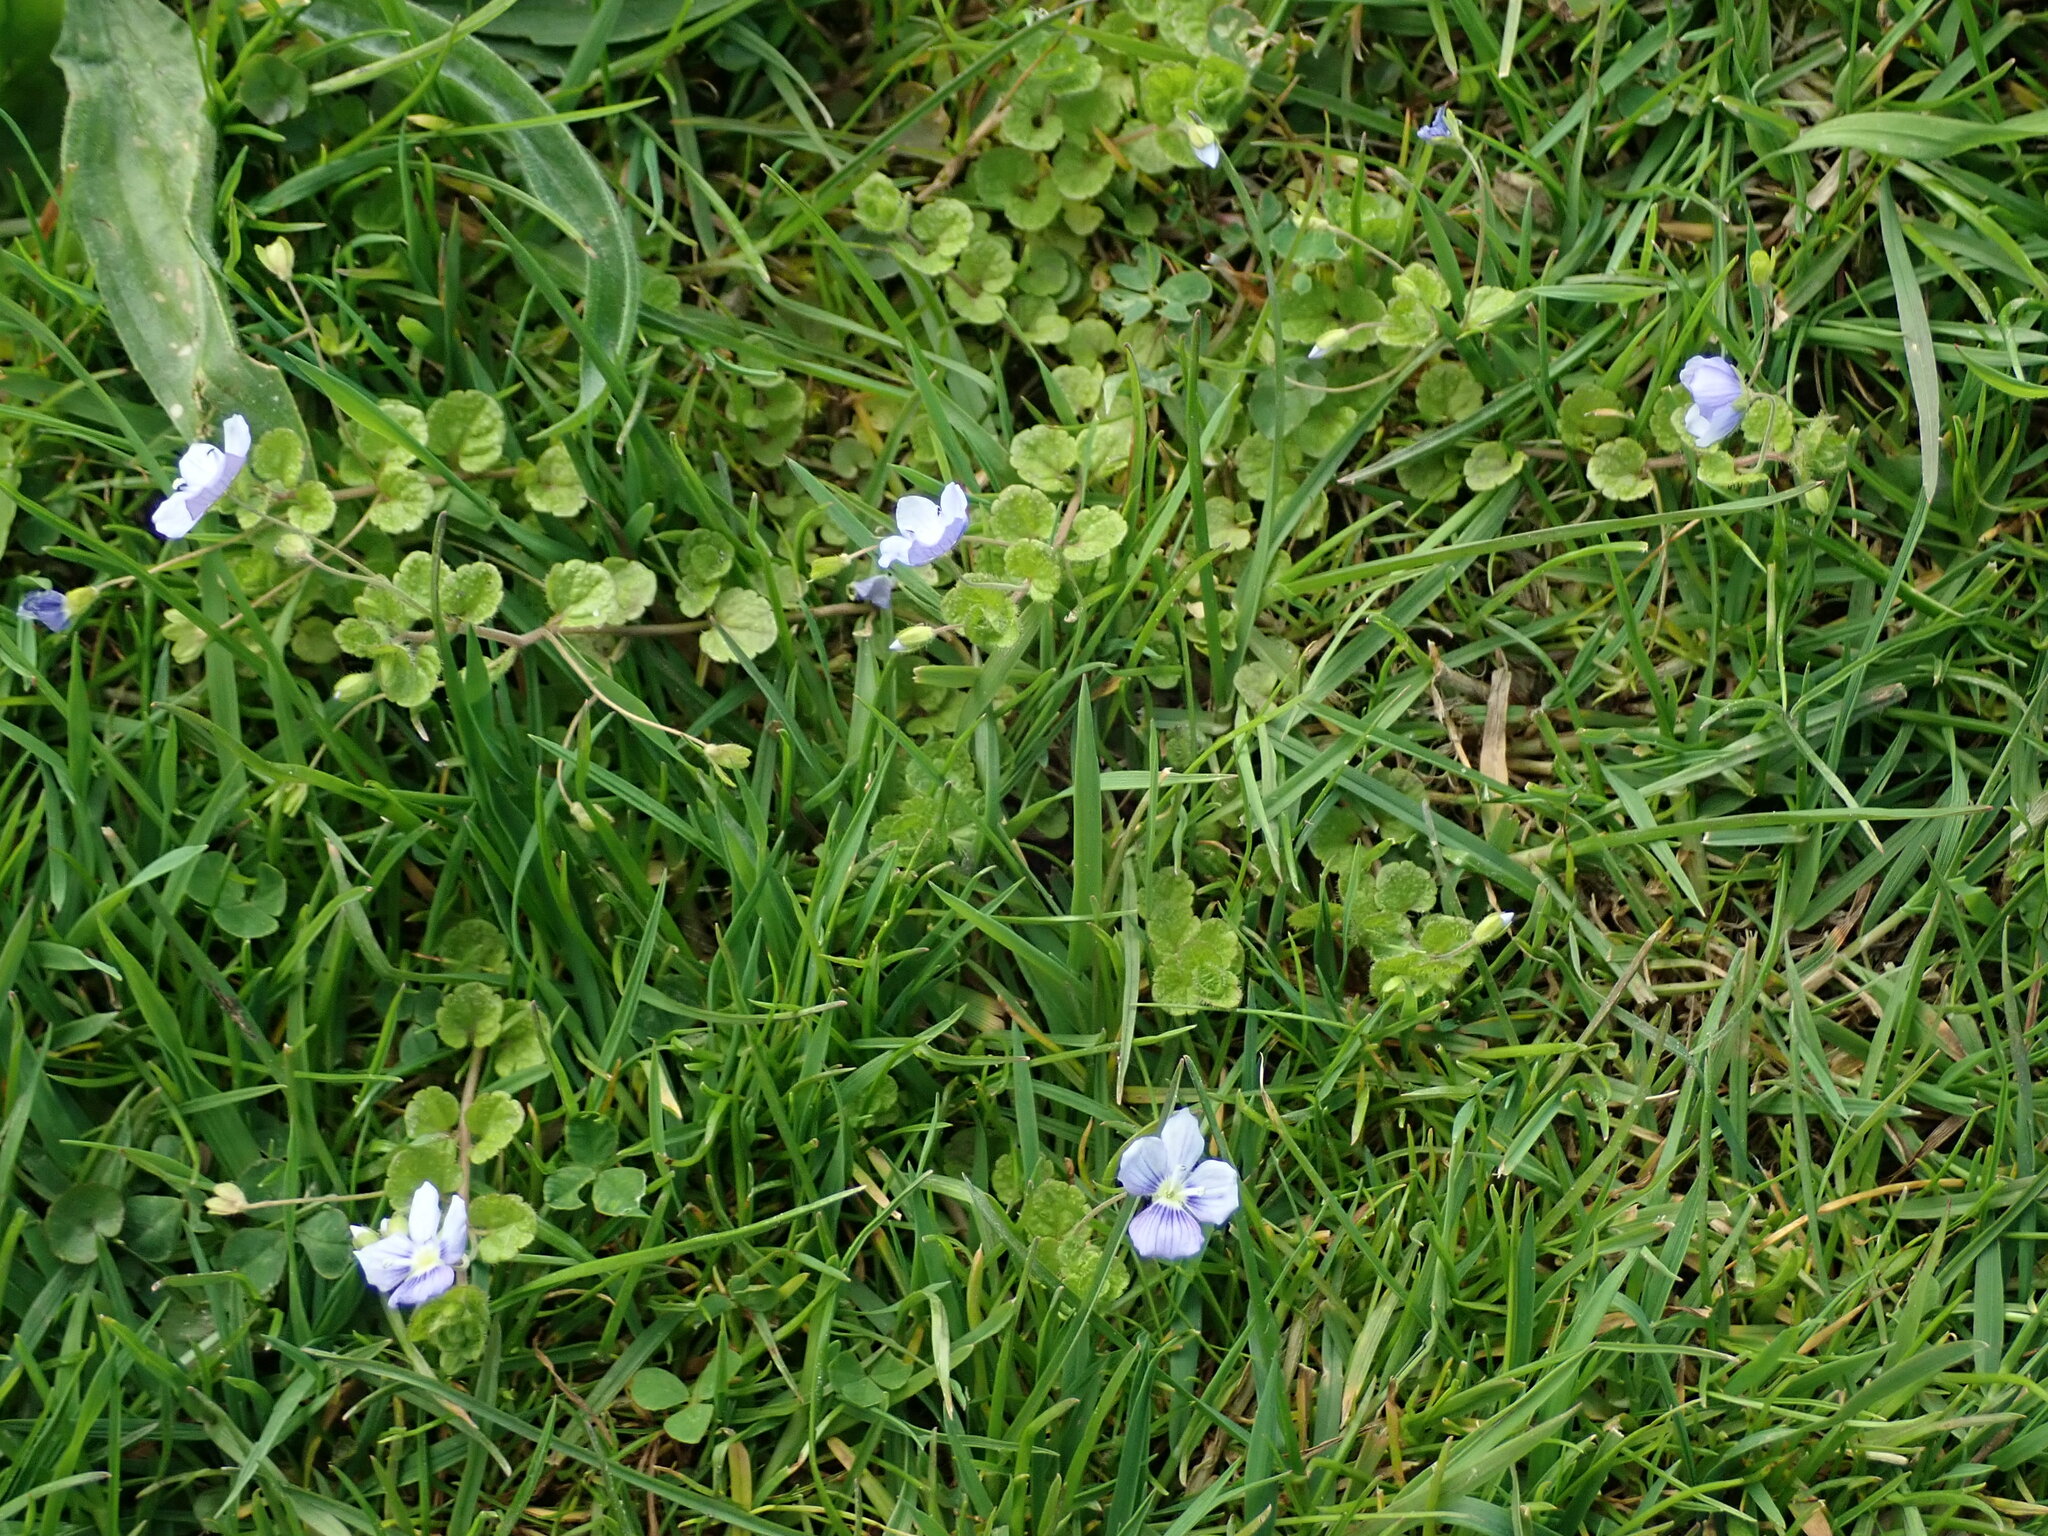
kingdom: Plantae
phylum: Tracheophyta
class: Magnoliopsida
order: Lamiales
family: Plantaginaceae
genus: Veronica
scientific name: Veronica filiformis
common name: Slender speedwell
